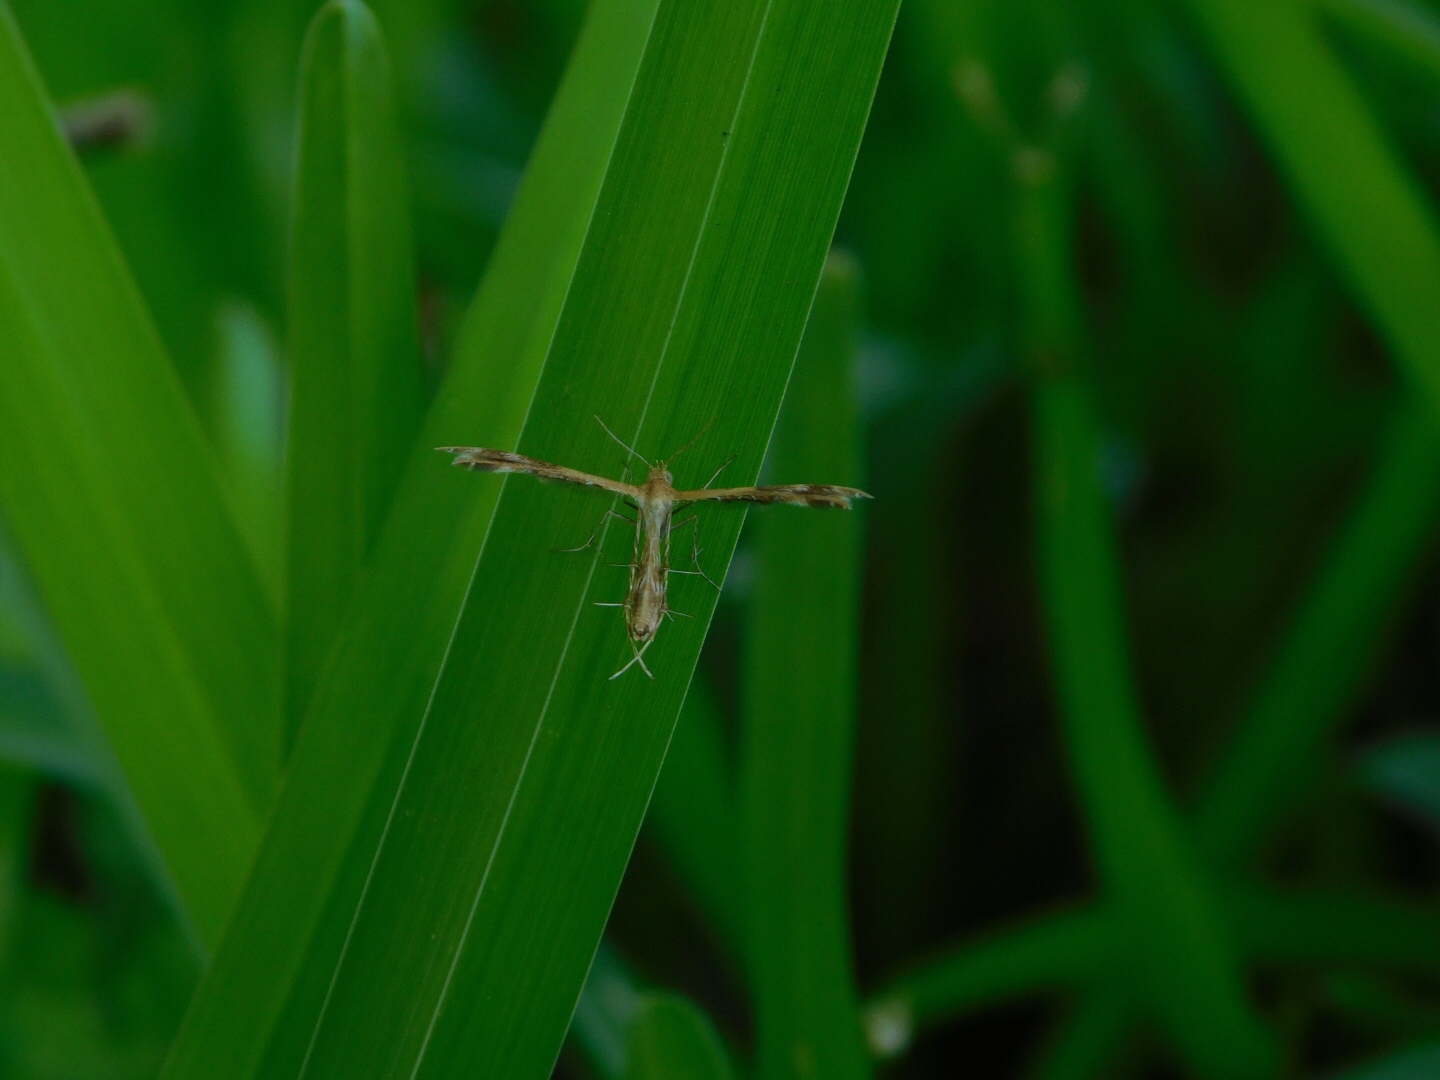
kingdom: Animalia
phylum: Arthropoda
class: Insecta
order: Lepidoptera
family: Pterophoridae
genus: Megalorhipida
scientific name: Megalorhipida leucodactylus
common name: Plume moth
